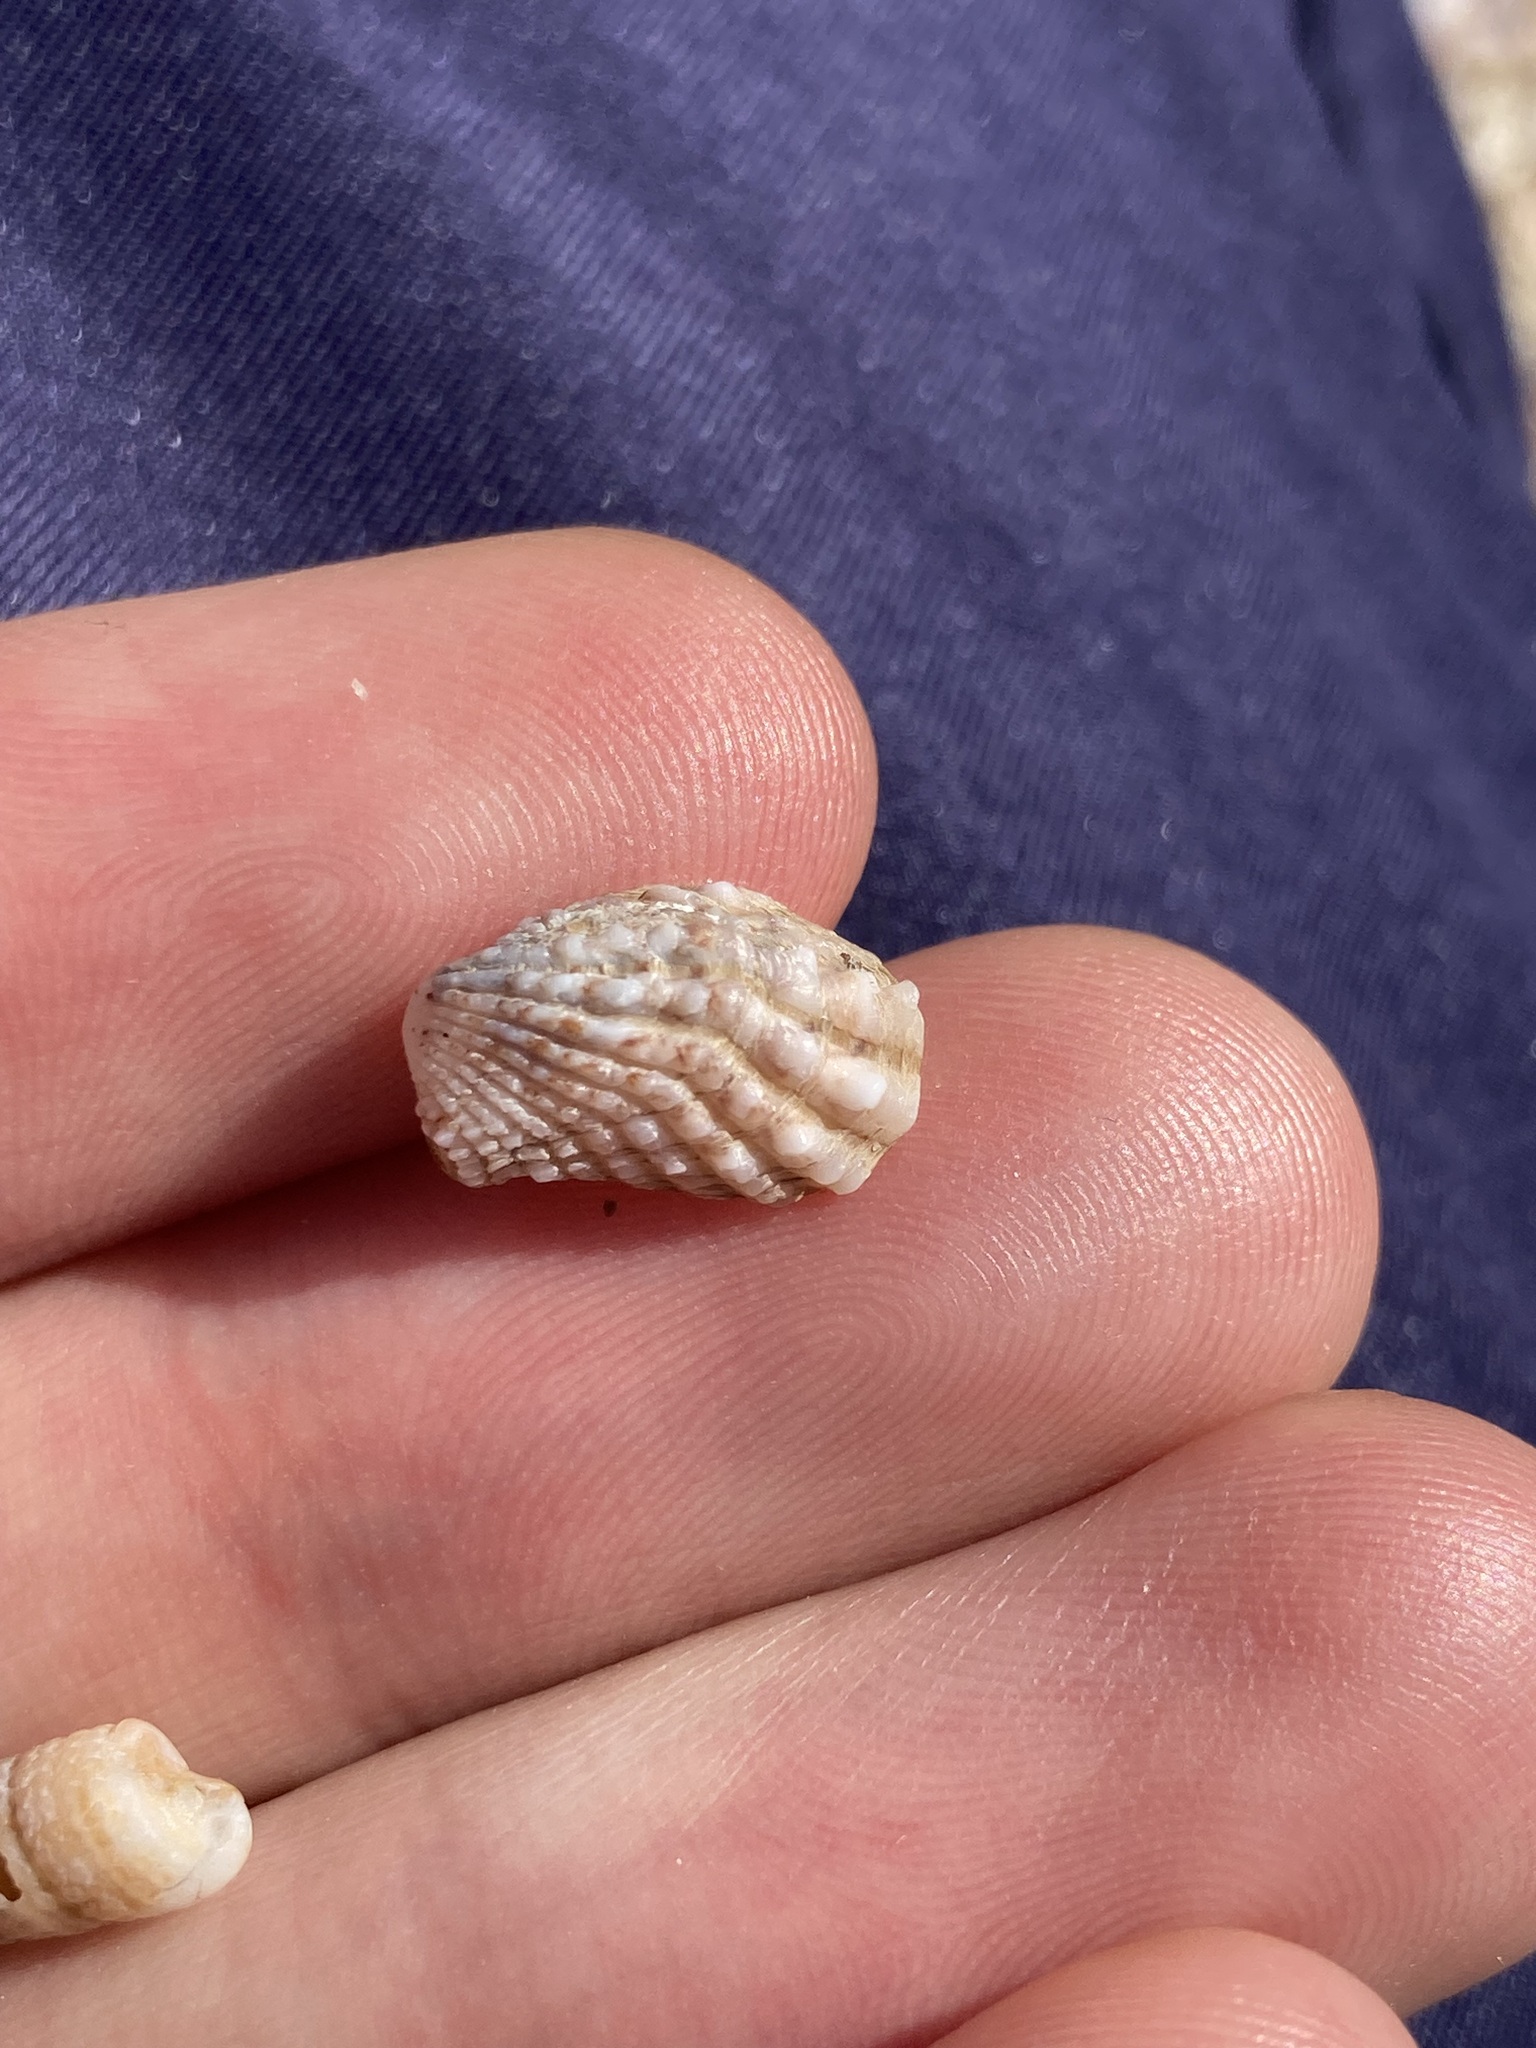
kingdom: Animalia
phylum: Mollusca
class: Bivalvia
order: Carditida
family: Carditidae
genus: Cardita
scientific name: Cardita aviculina
